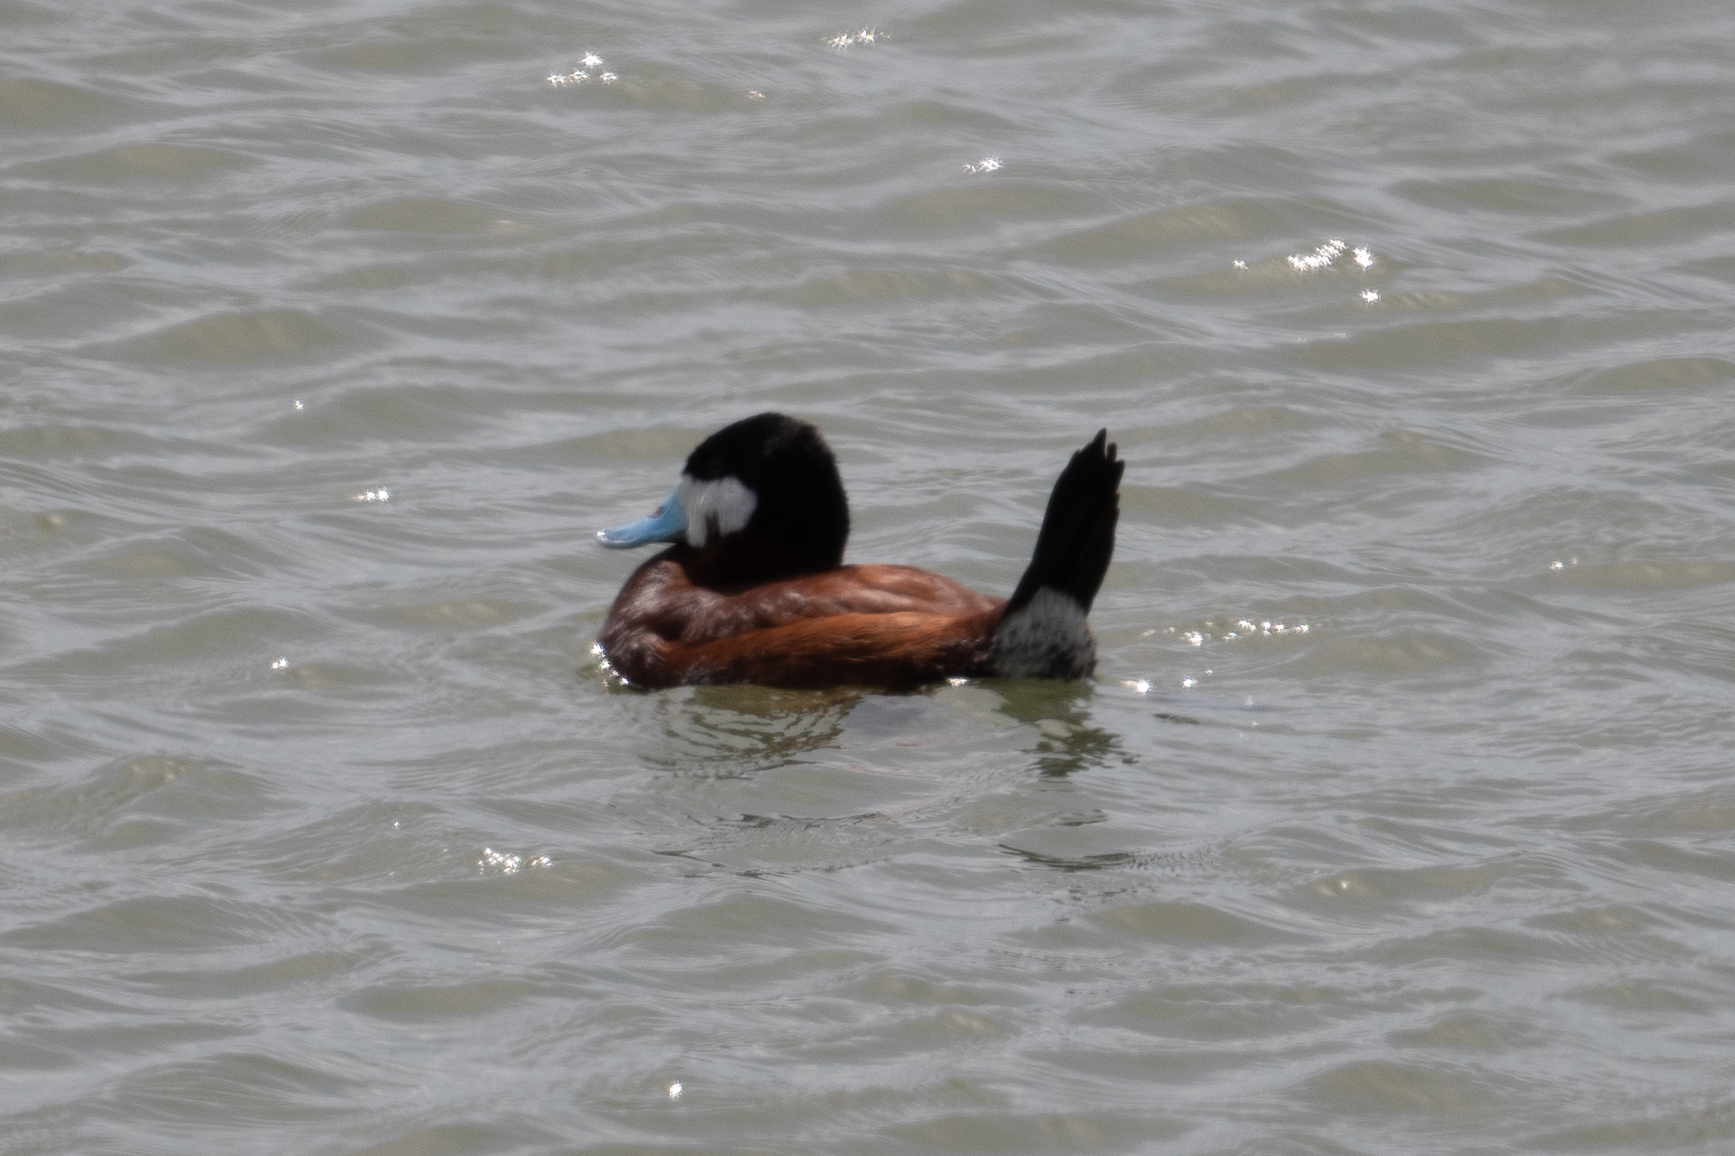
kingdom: Animalia
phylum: Chordata
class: Aves
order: Anseriformes
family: Anatidae
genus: Oxyura
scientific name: Oxyura jamaicensis
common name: Ruddy duck
